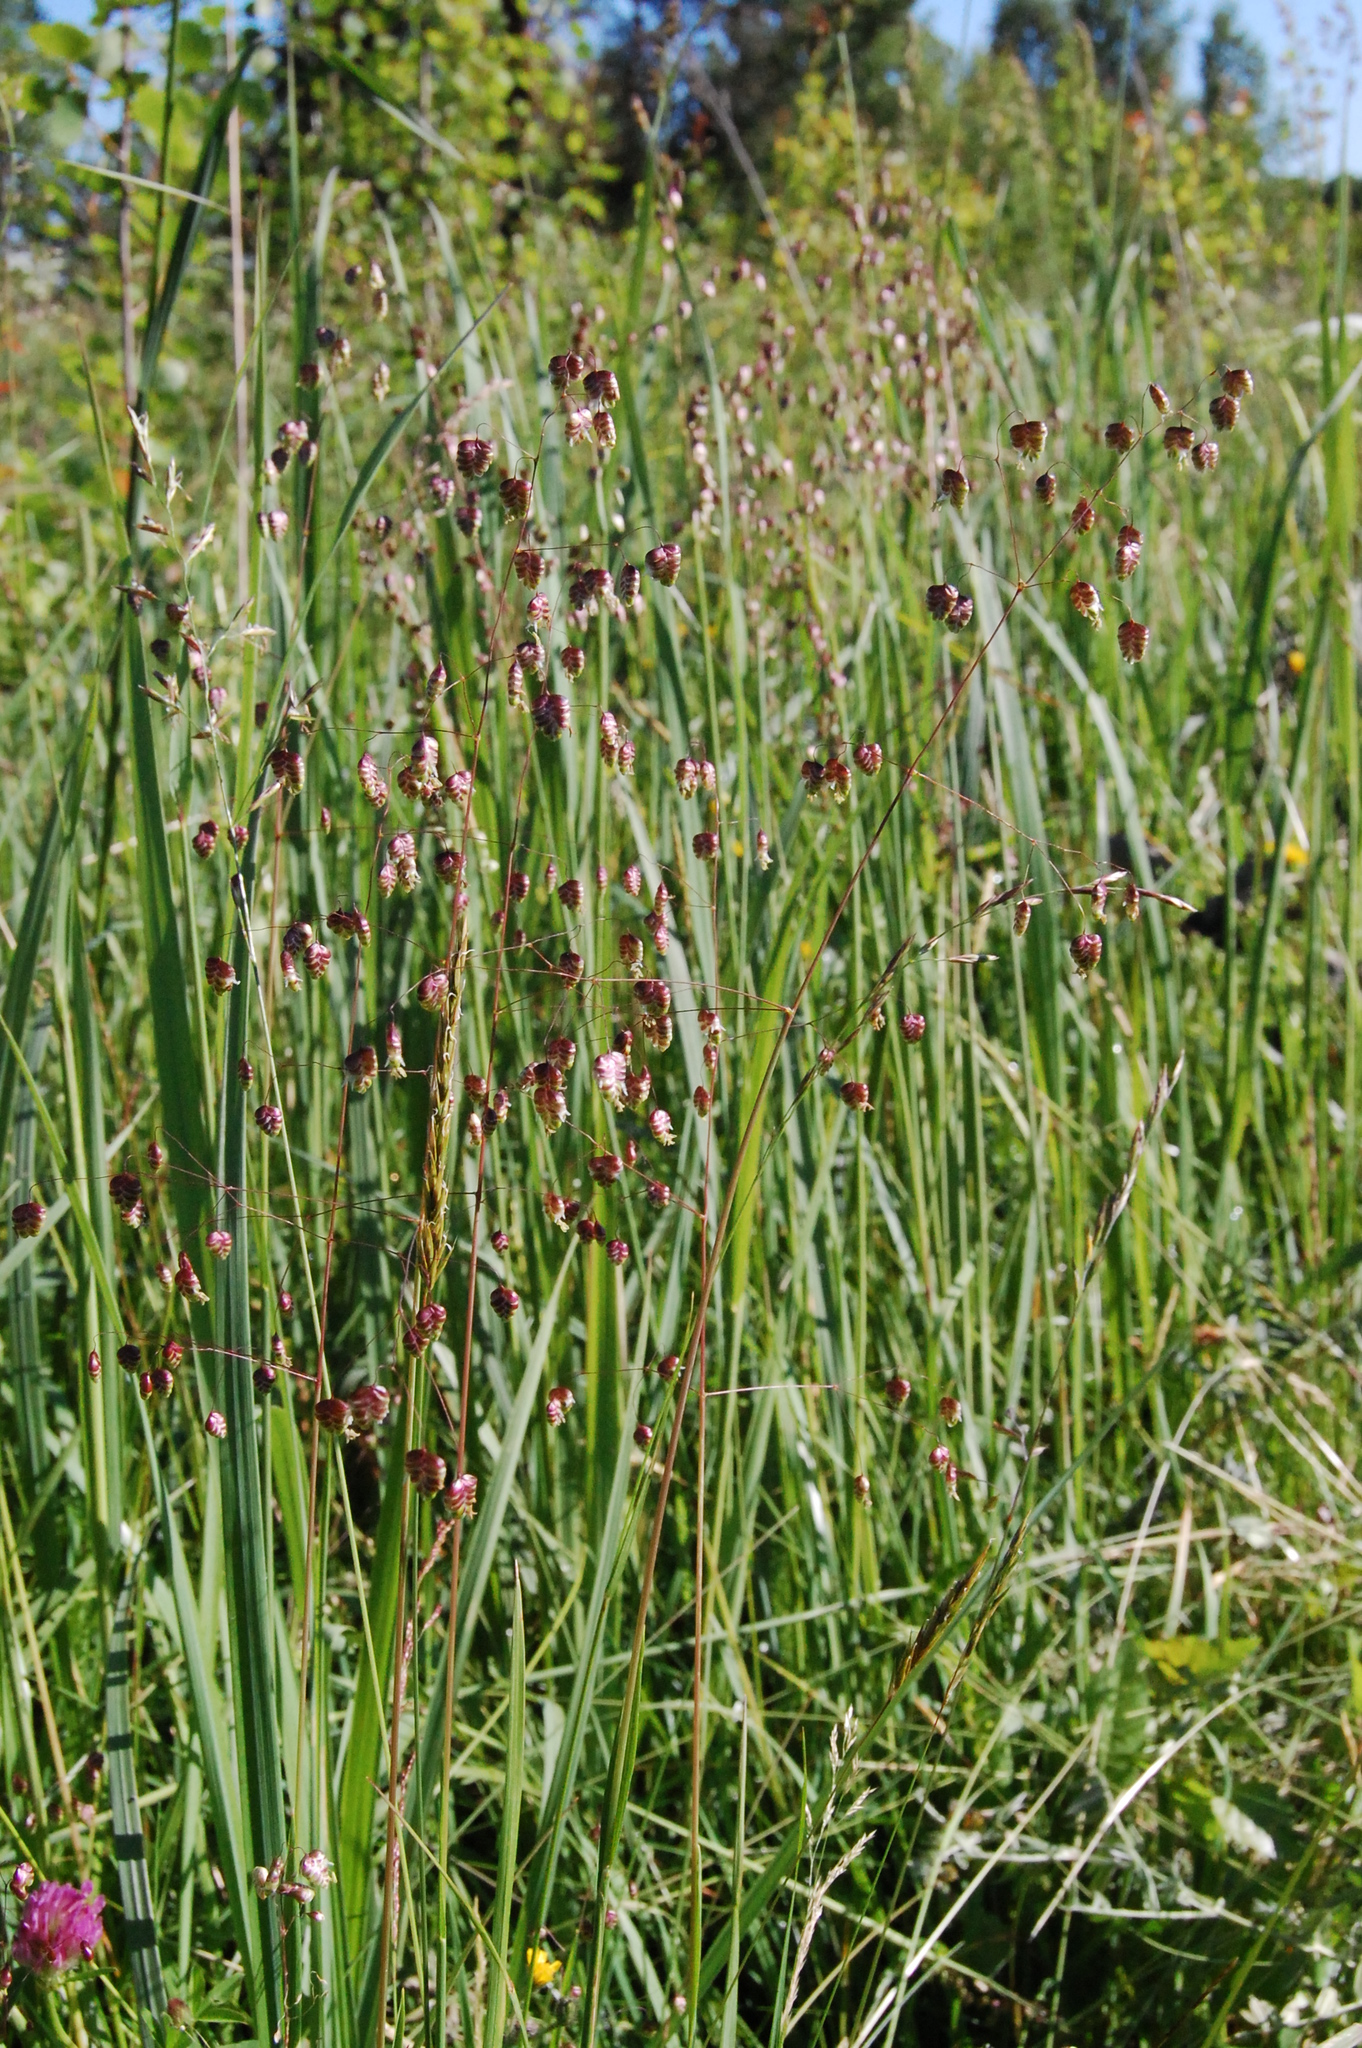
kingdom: Plantae
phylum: Tracheophyta
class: Liliopsida
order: Poales
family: Poaceae
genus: Briza
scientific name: Briza media
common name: Quaking grass
